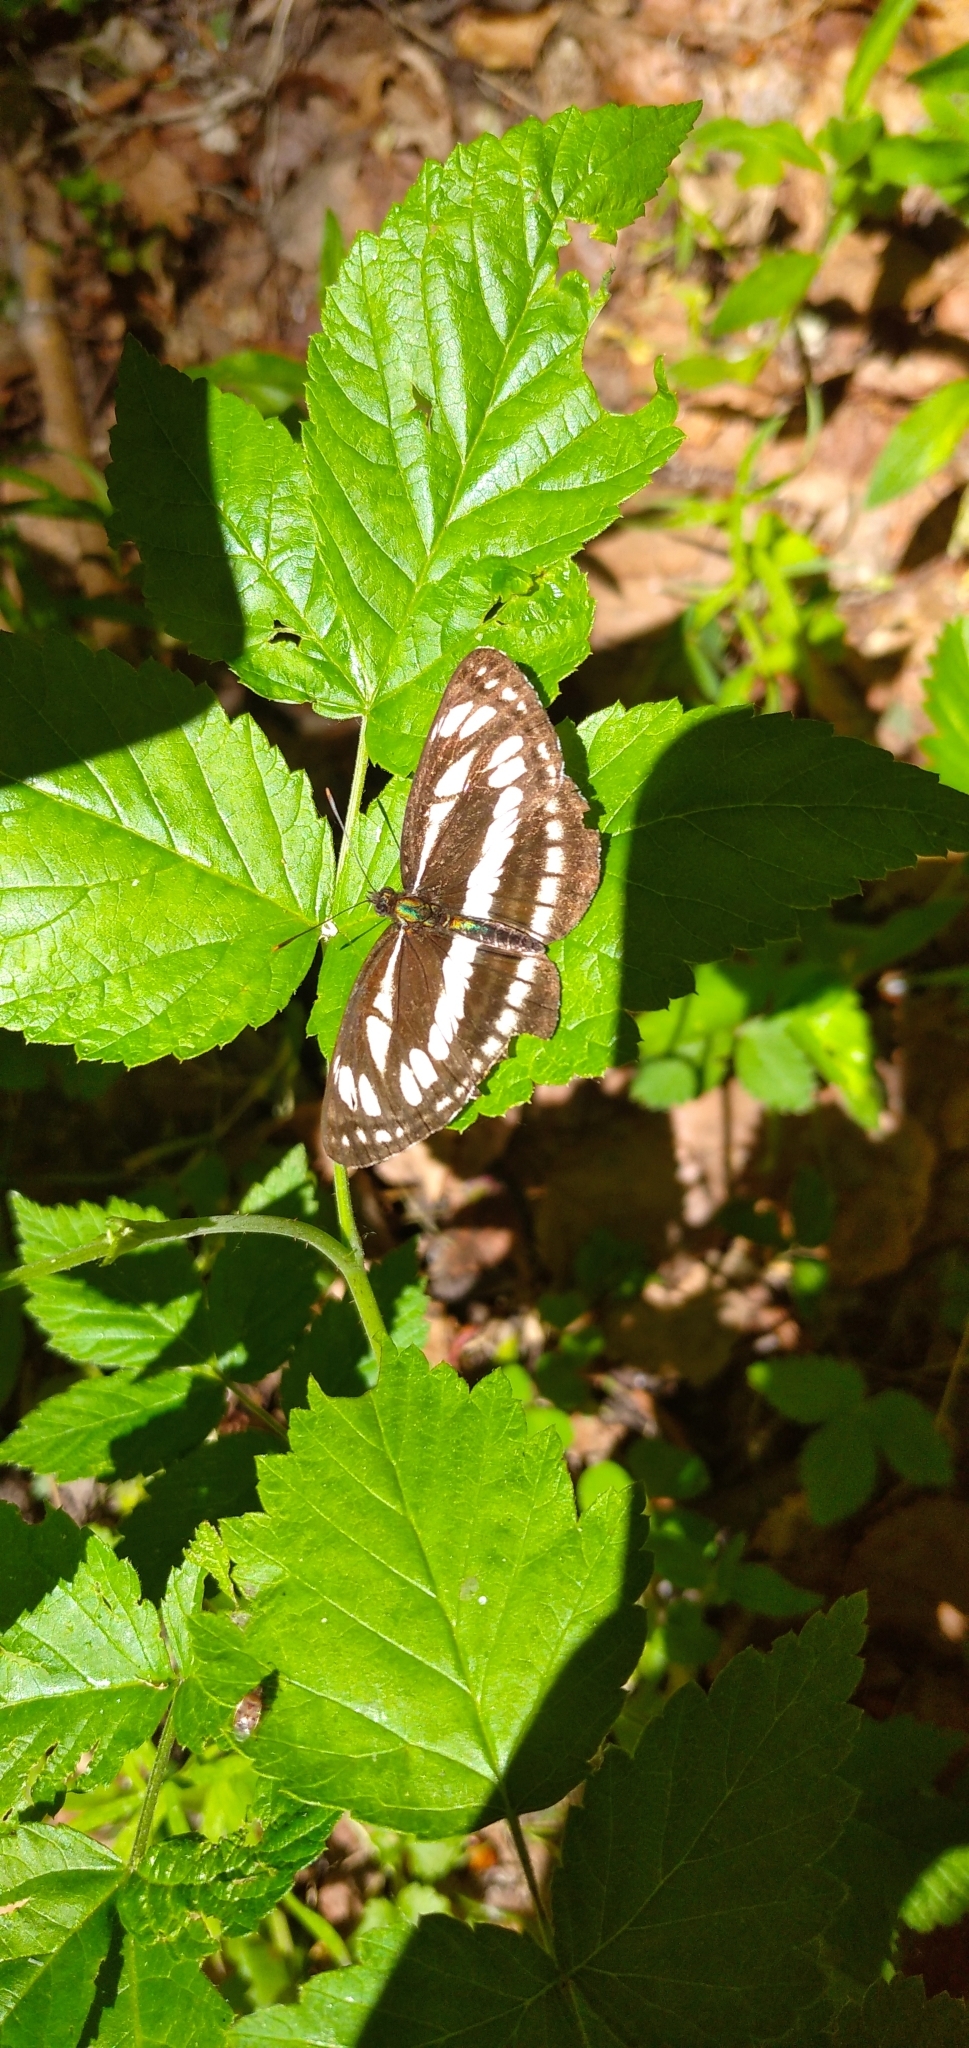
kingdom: Animalia
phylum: Arthropoda
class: Insecta
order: Lepidoptera
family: Nymphalidae
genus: Neptis
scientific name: Neptis sappho
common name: Common glider
